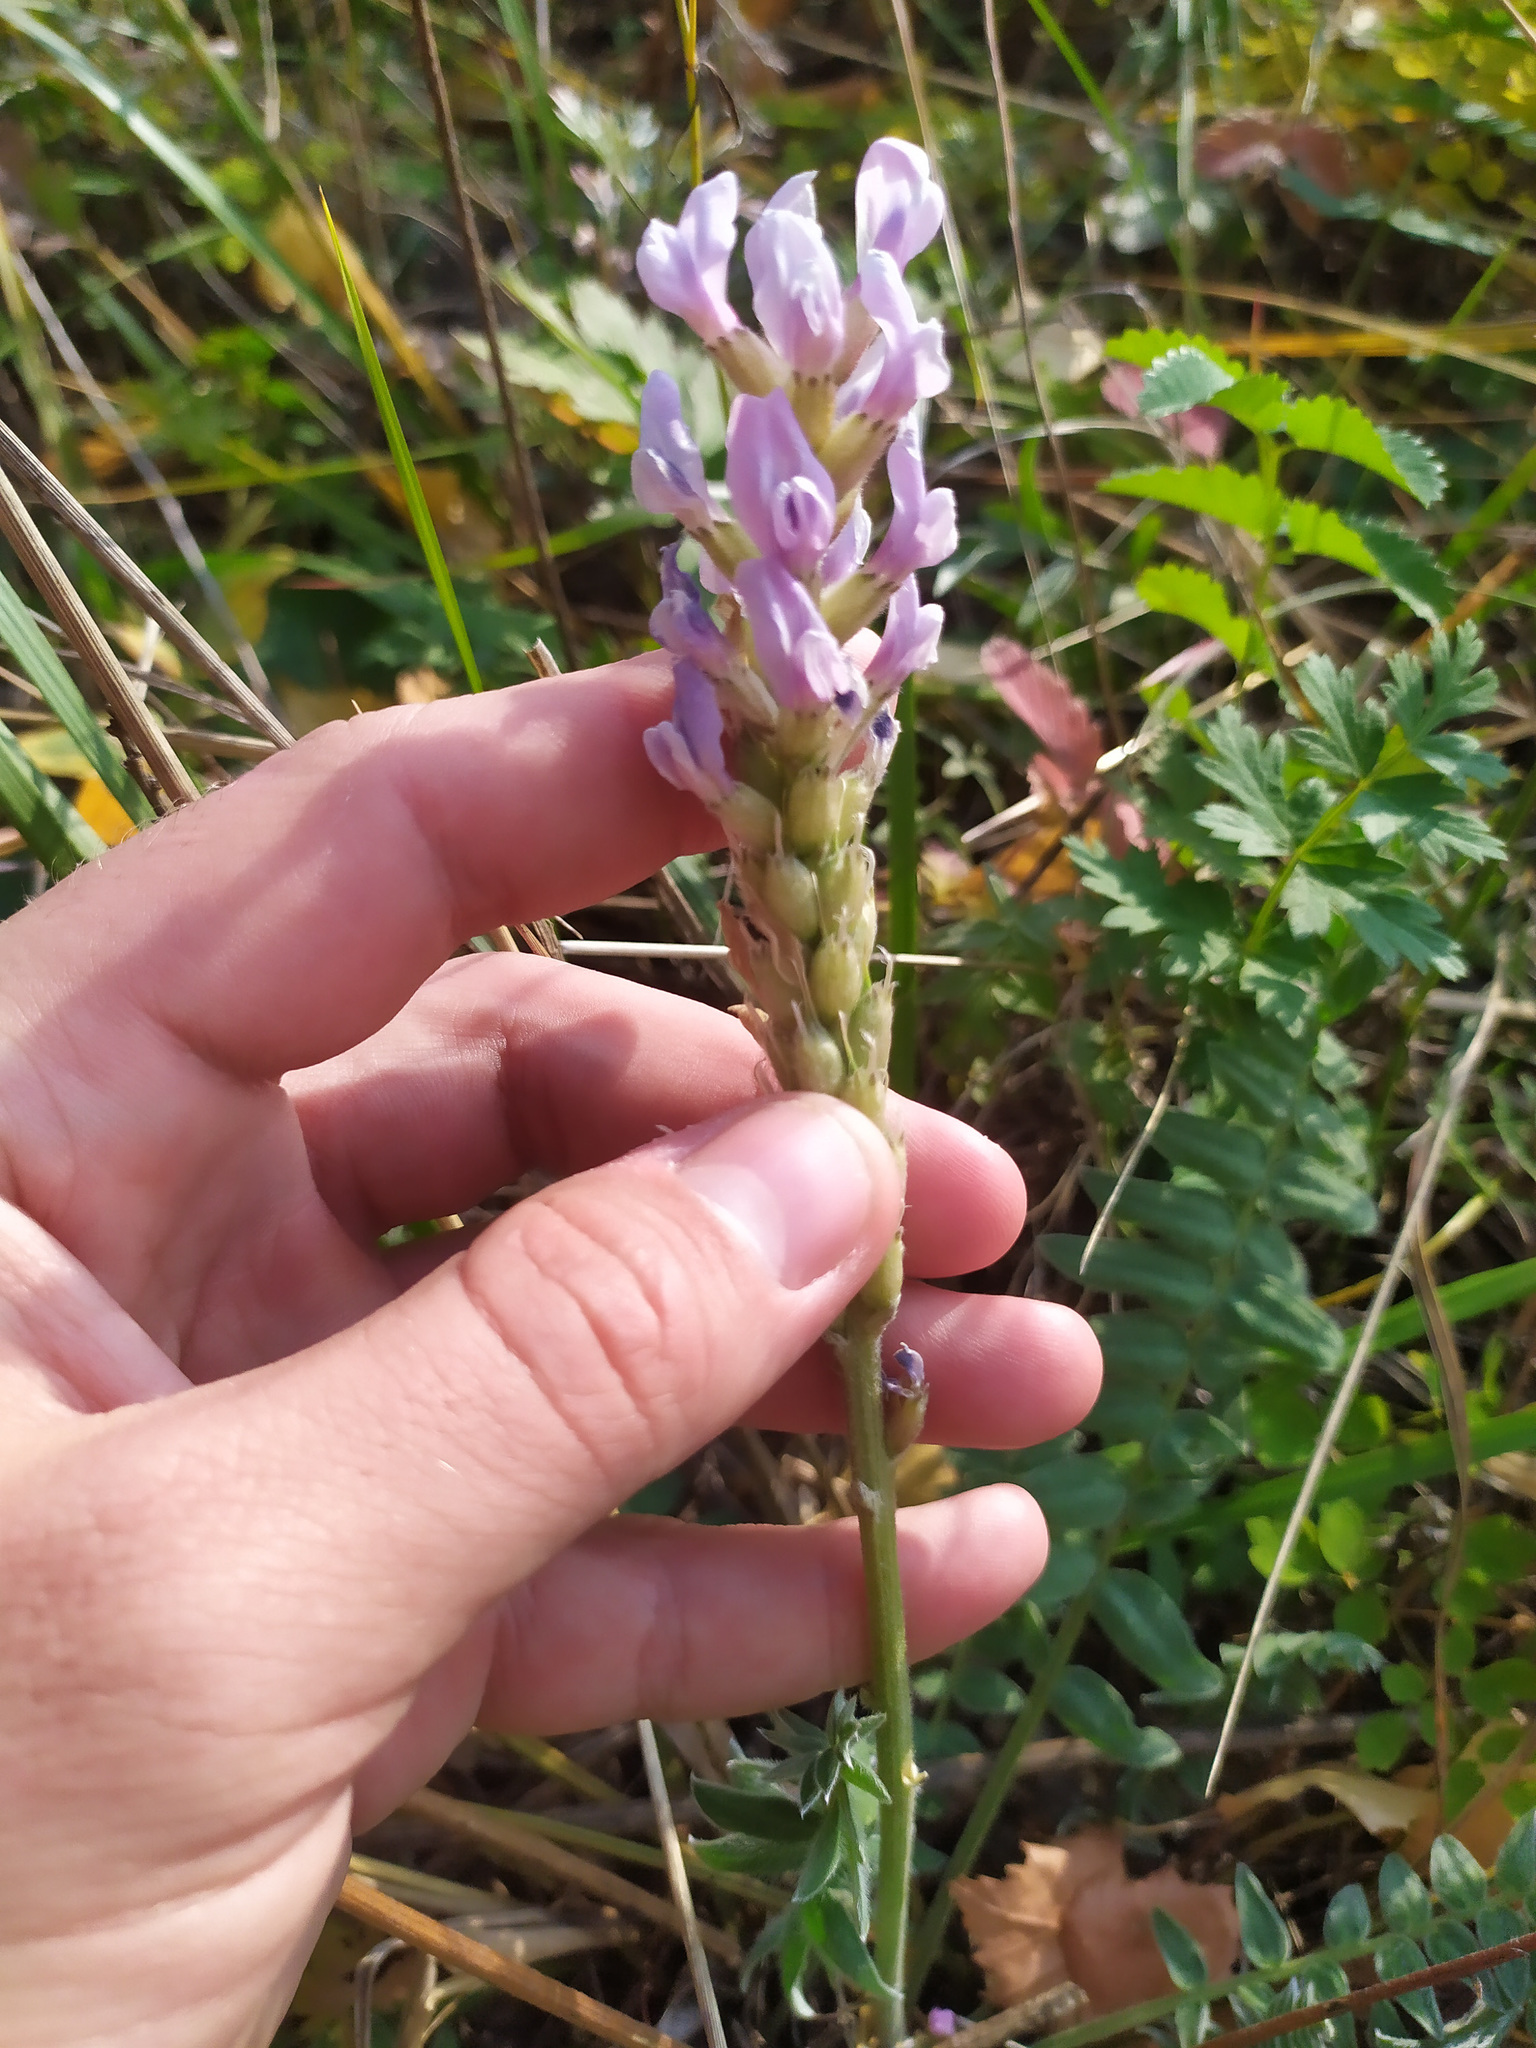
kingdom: Plantae
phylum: Tracheophyta
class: Magnoliopsida
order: Fabales
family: Fabaceae
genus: Oxytropis
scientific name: Oxytropis spicata
